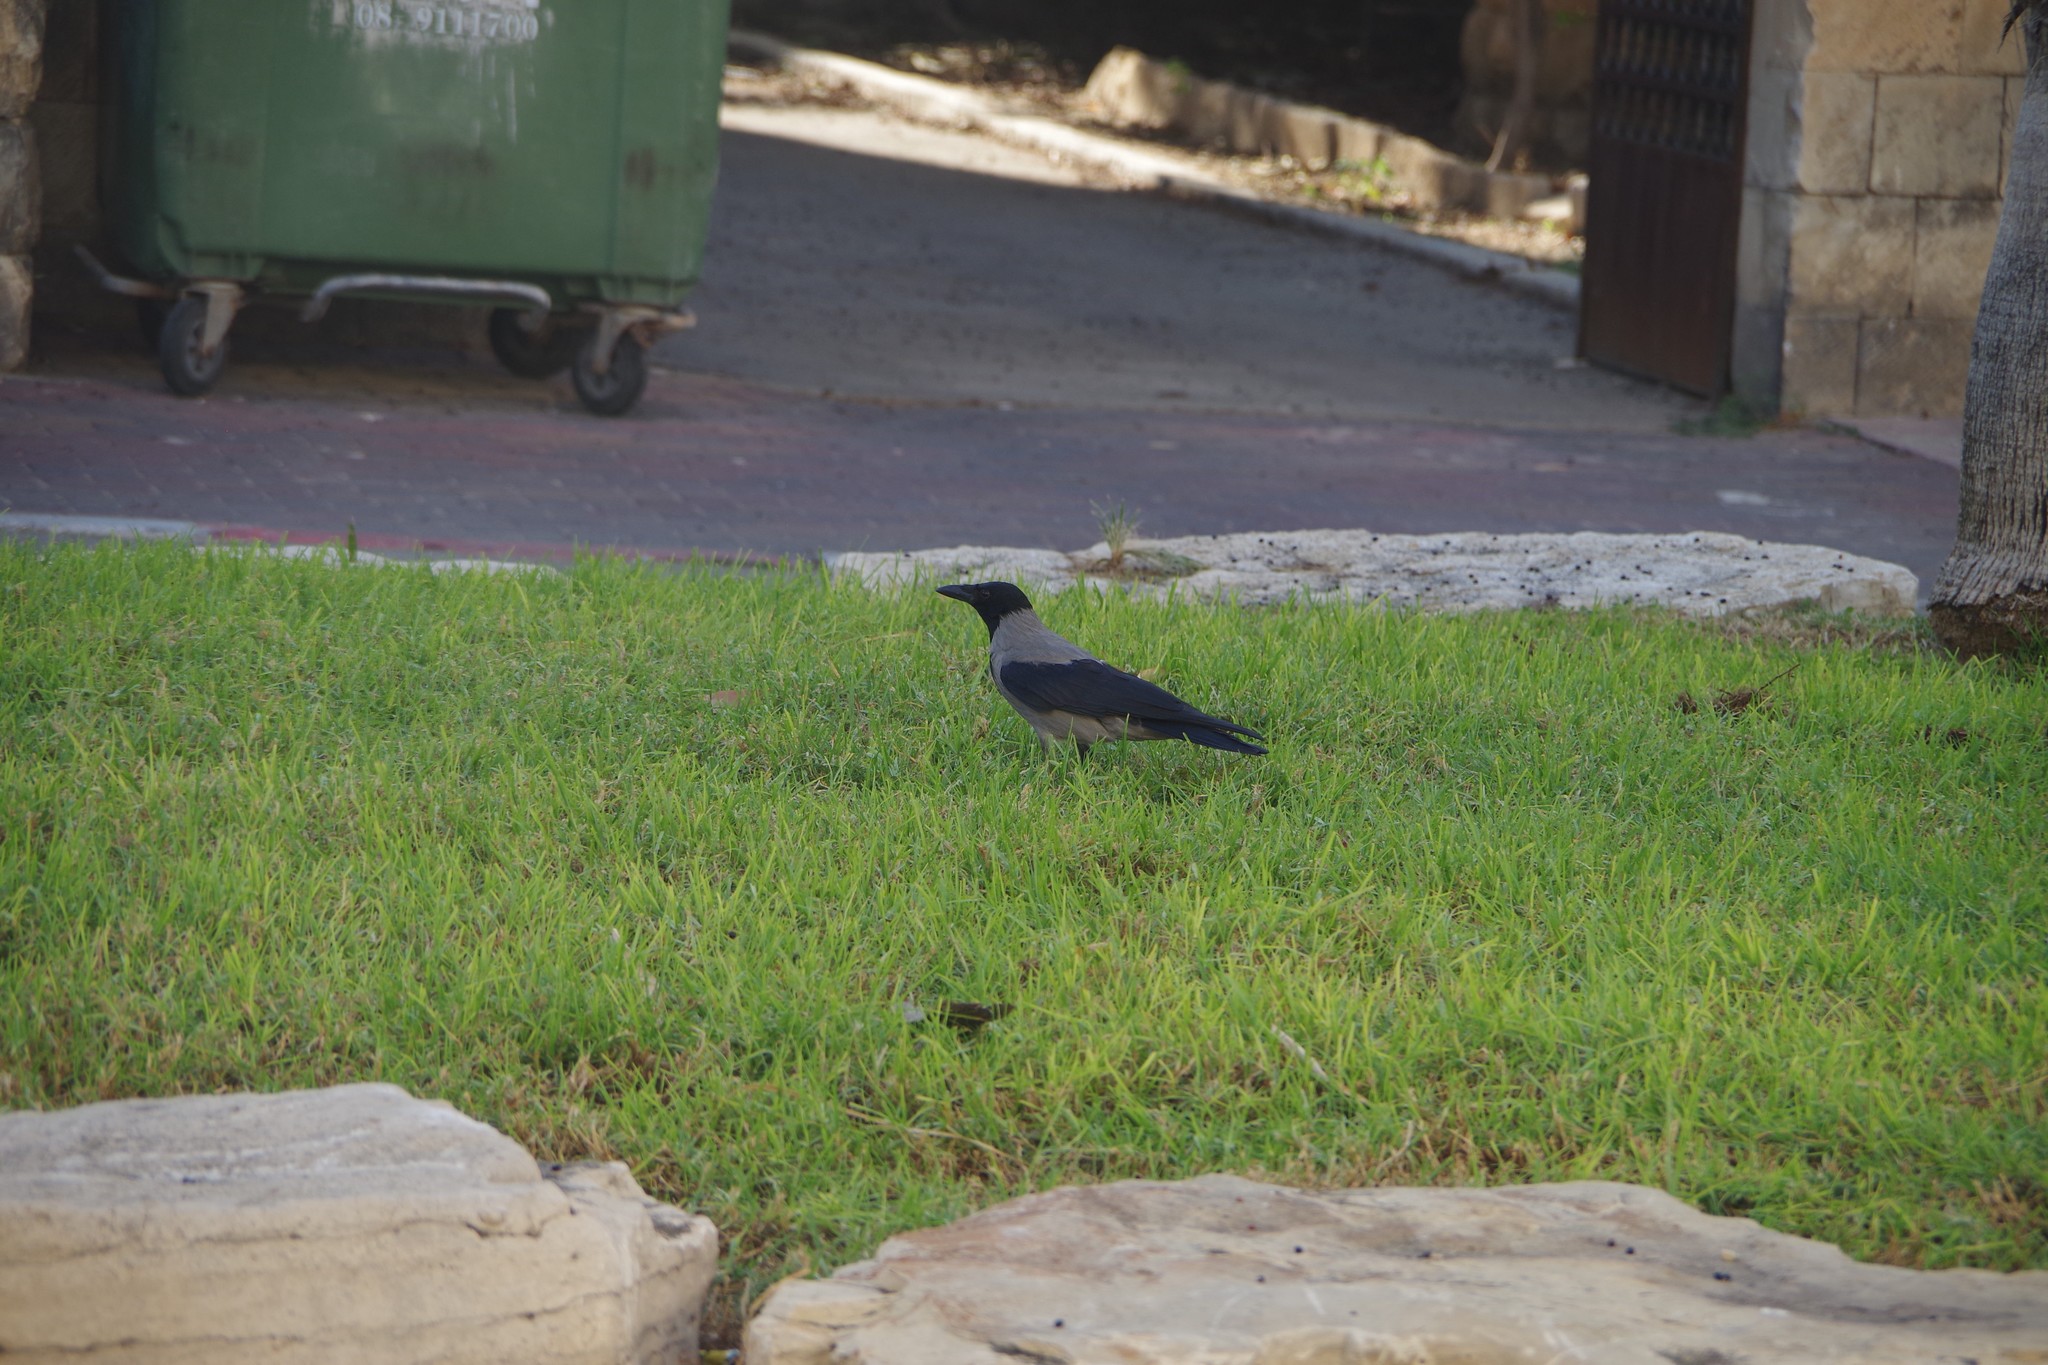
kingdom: Animalia
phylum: Chordata
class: Aves
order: Passeriformes
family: Corvidae
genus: Corvus
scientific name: Corvus cornix
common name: Hooded crow
